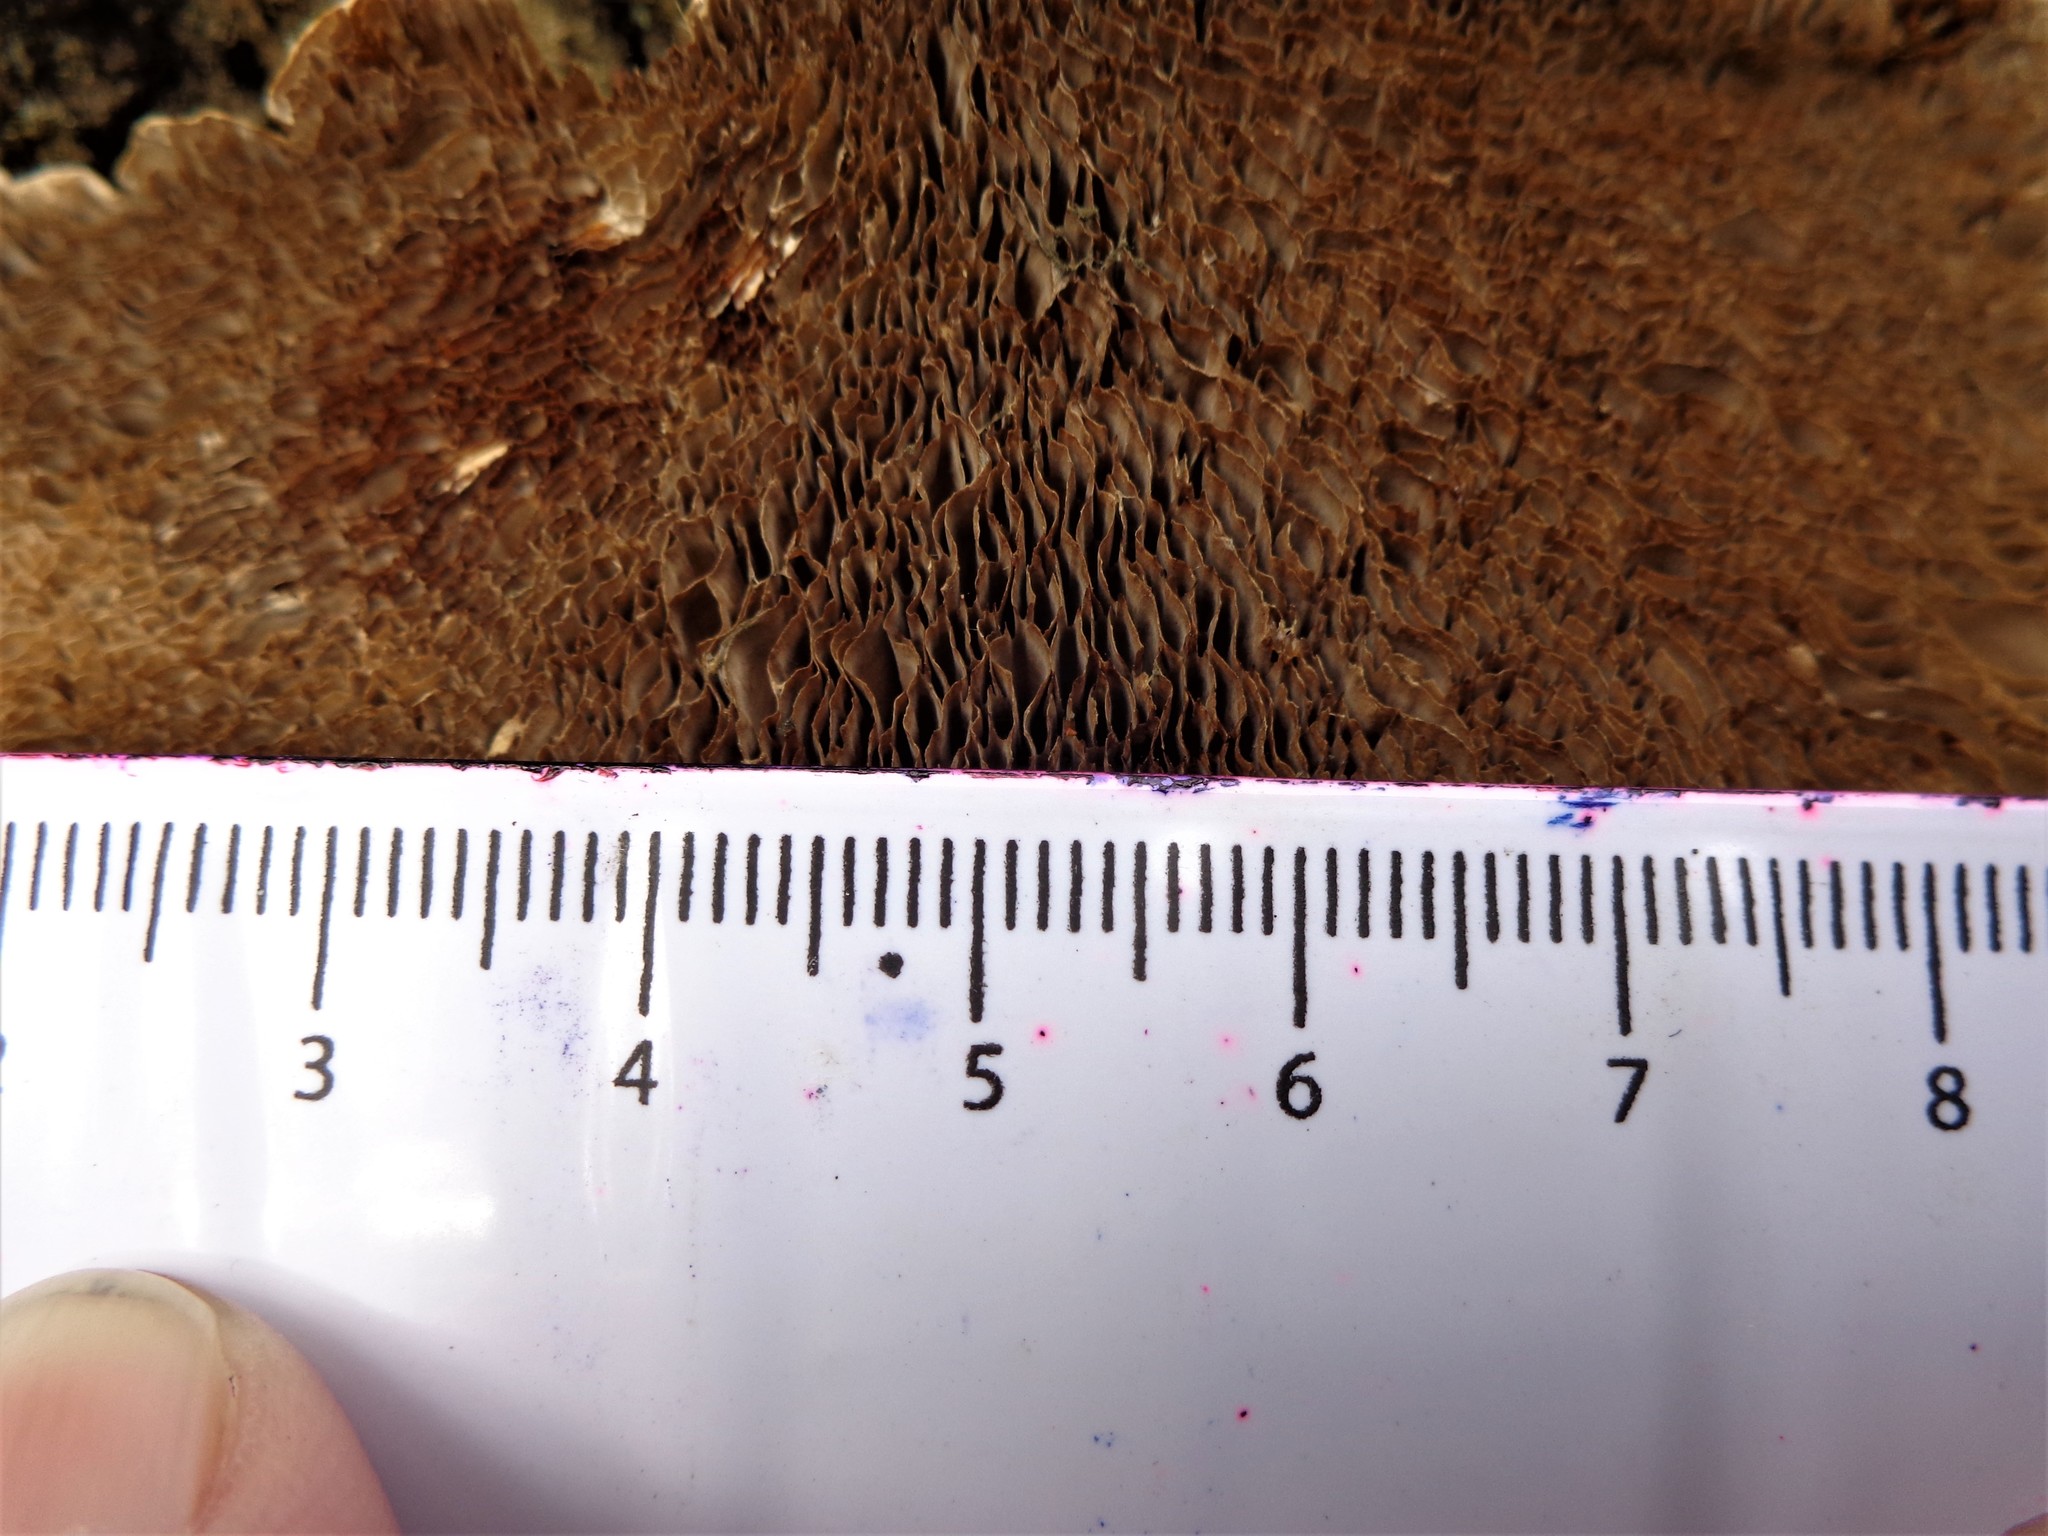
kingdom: Fungi
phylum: Basidiomycota
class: Agaricomycetes
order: Polyporales
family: Polyporaceae
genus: Daedaleopsis
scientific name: Daedaleopsis tricolor
